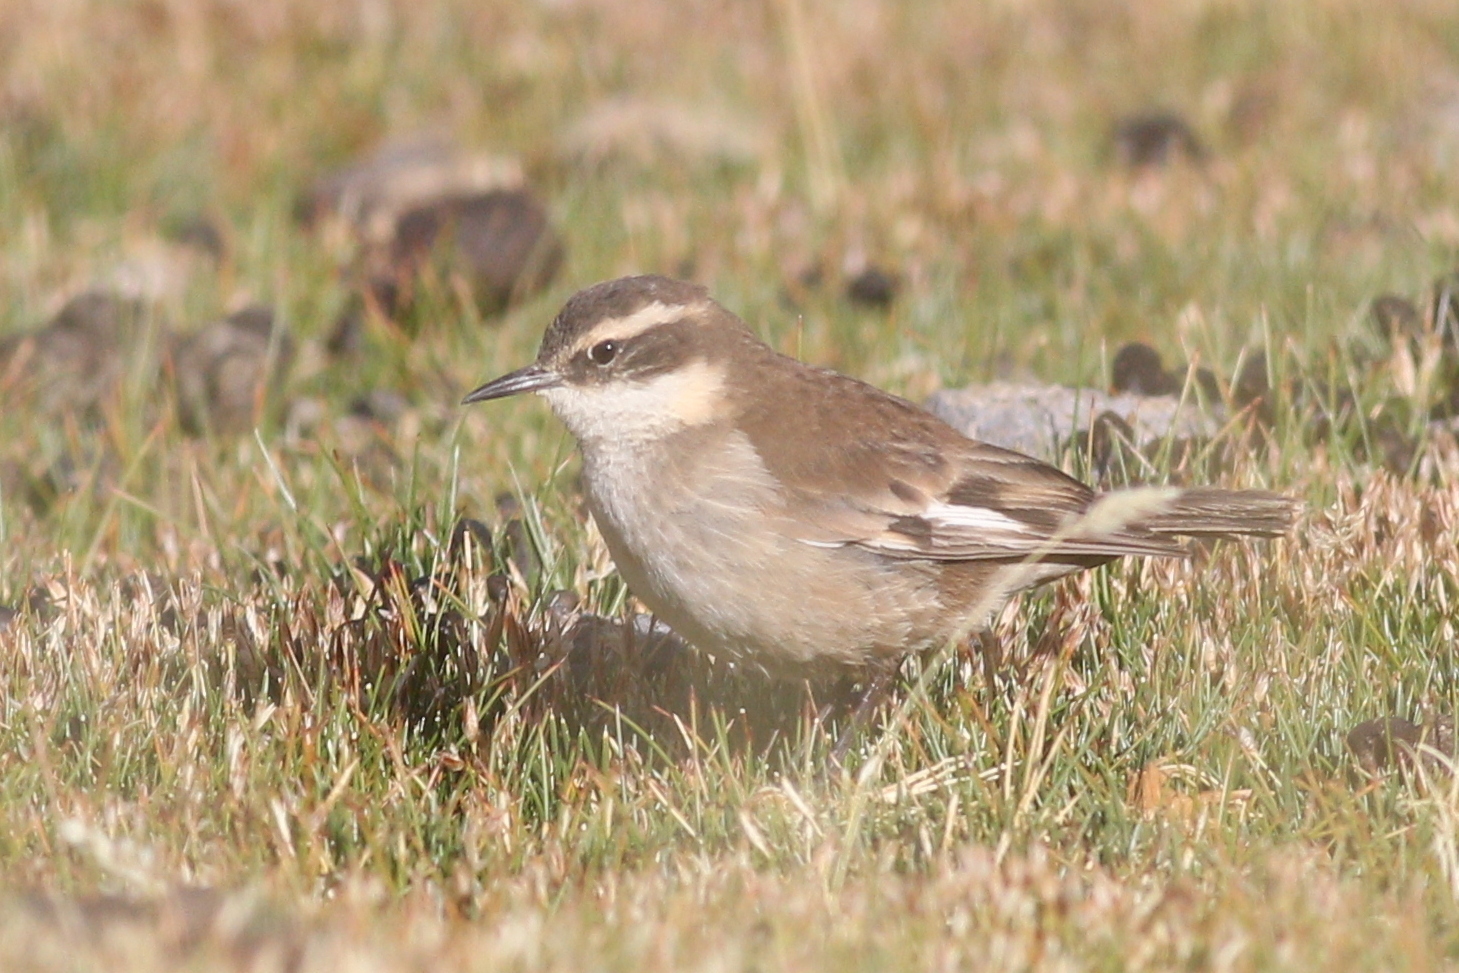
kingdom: Animalia
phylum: Chordata
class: Aves
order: Passeriformes
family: Furnariidae
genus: Cinclodes
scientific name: Cinclodes fuscus
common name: Buff-winged cinclodes
